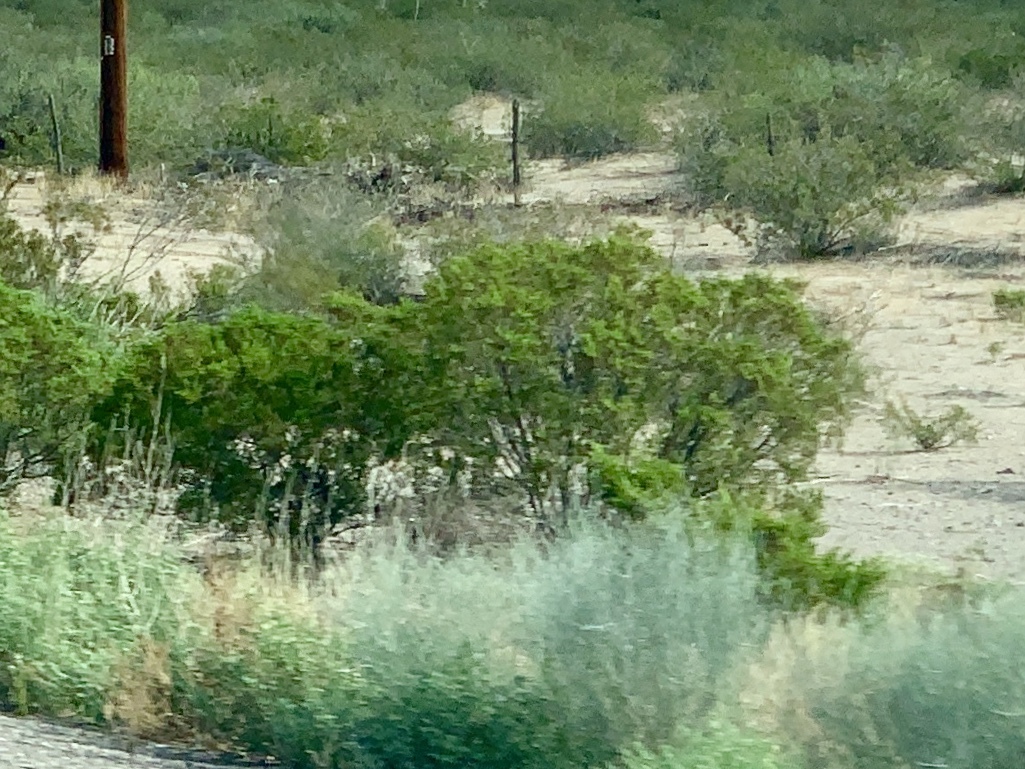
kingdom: Plantae
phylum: Tracheophyta
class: Magnoliopsida
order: Zygophyllales
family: Zygophyllaceae
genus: Larrea
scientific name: Larrea tridentata
